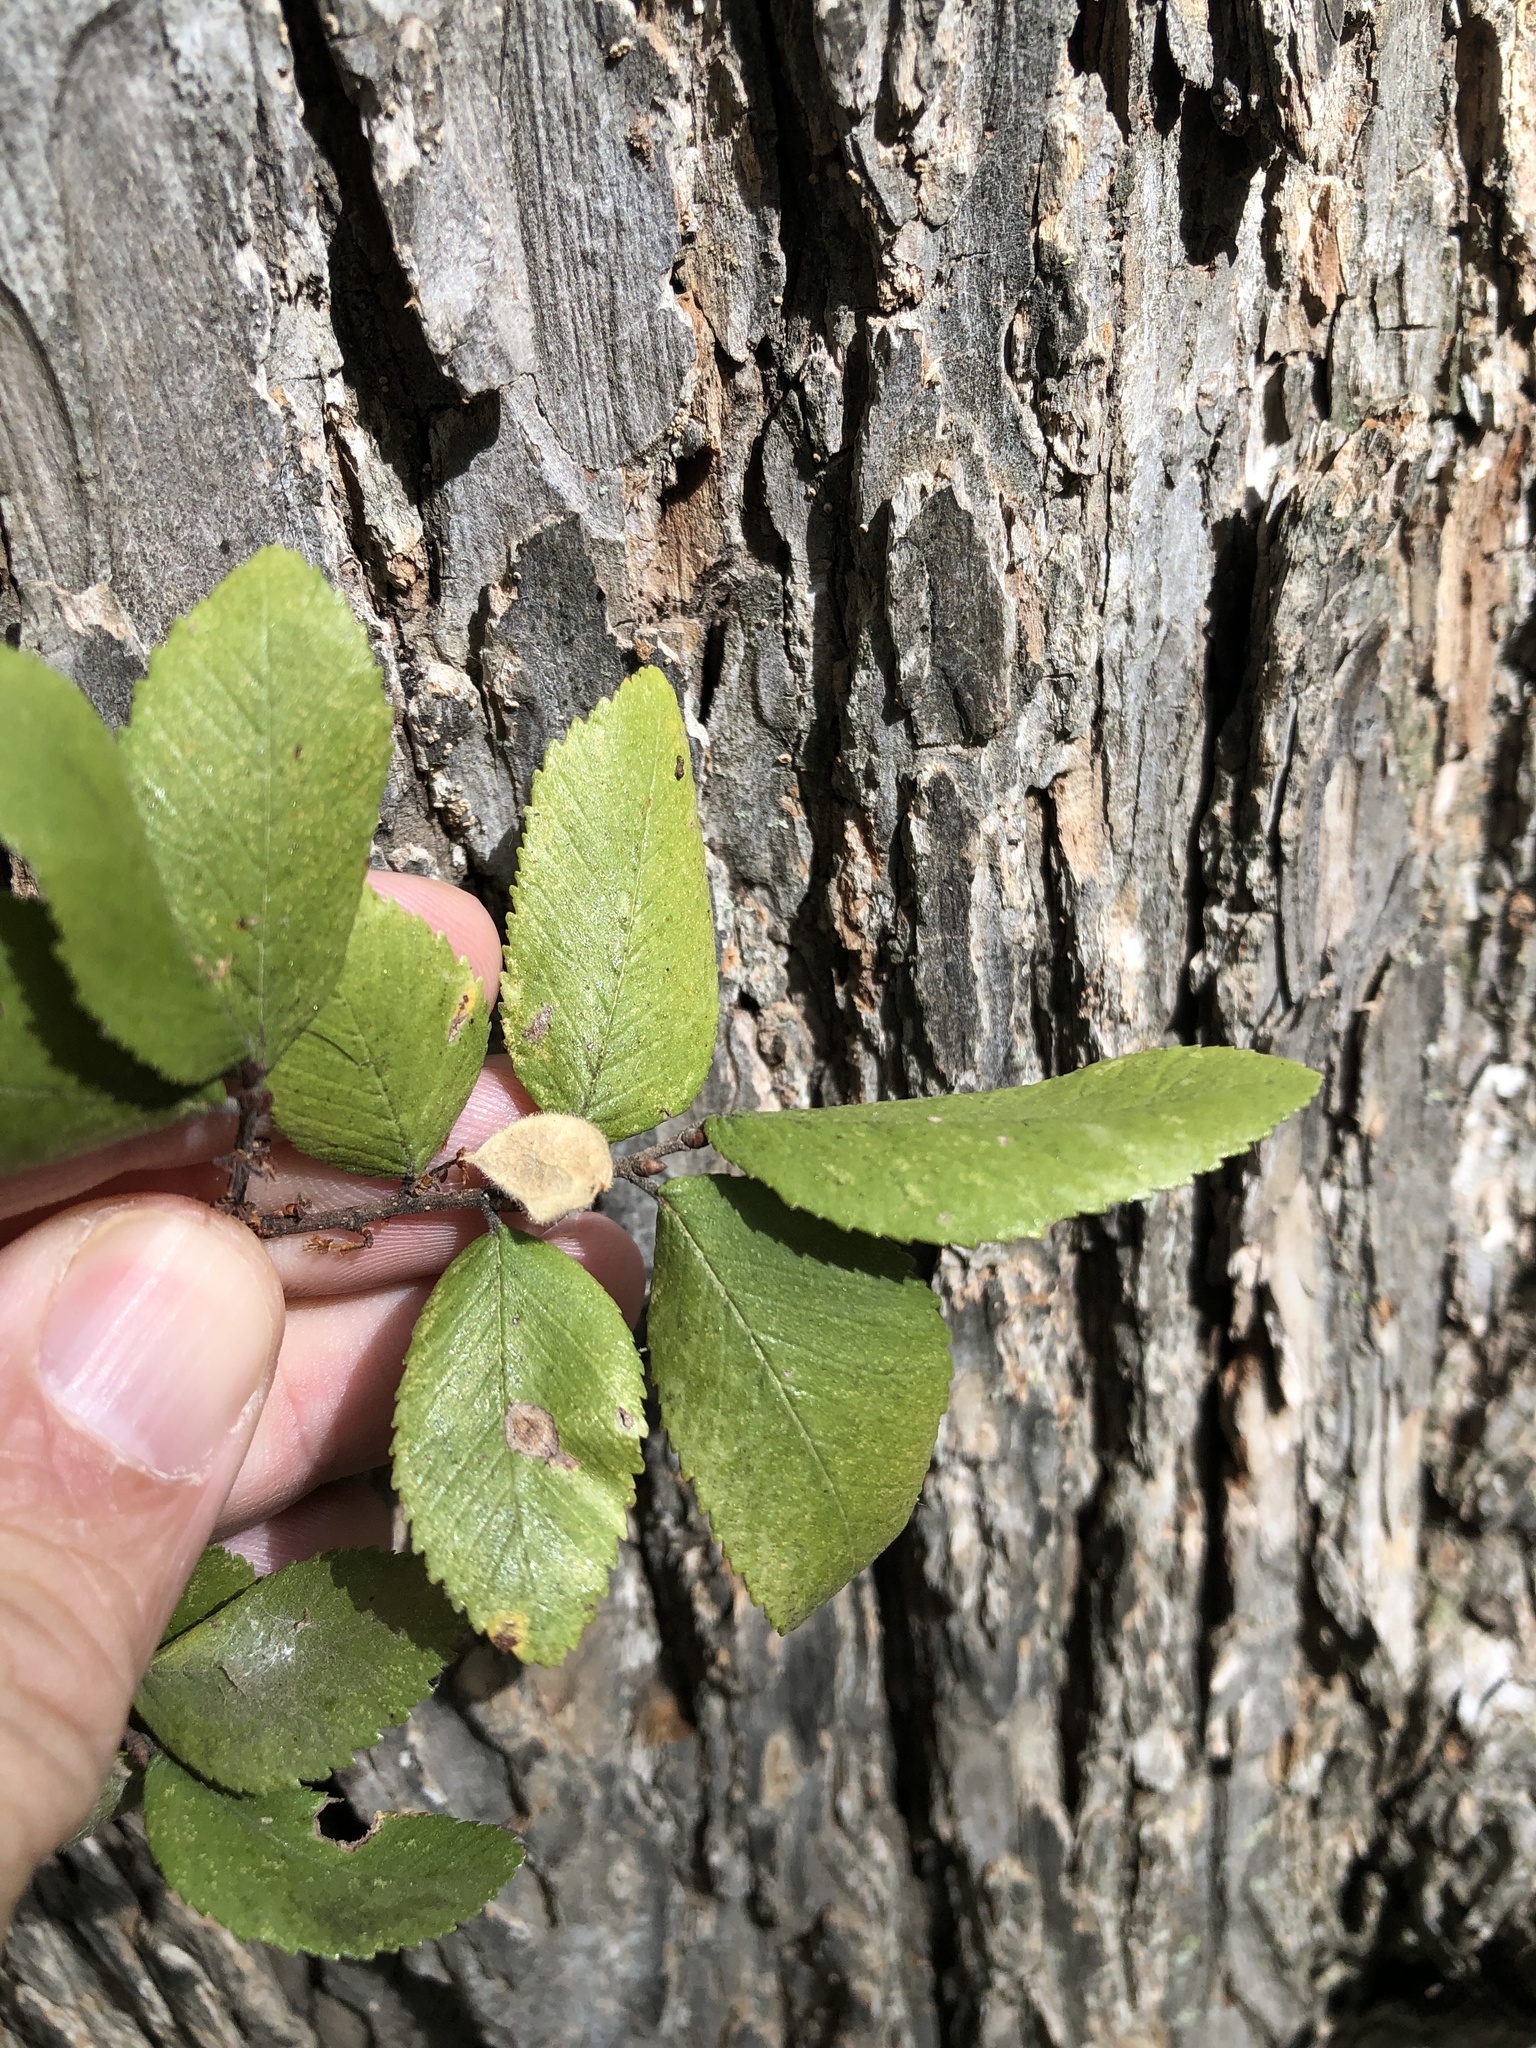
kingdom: Plantae
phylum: Tracheophyta
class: Magnoliopsida
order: Rosales
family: Ulmaceae
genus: Ulmus
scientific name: Ulmus crassifolia
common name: Basket elm
